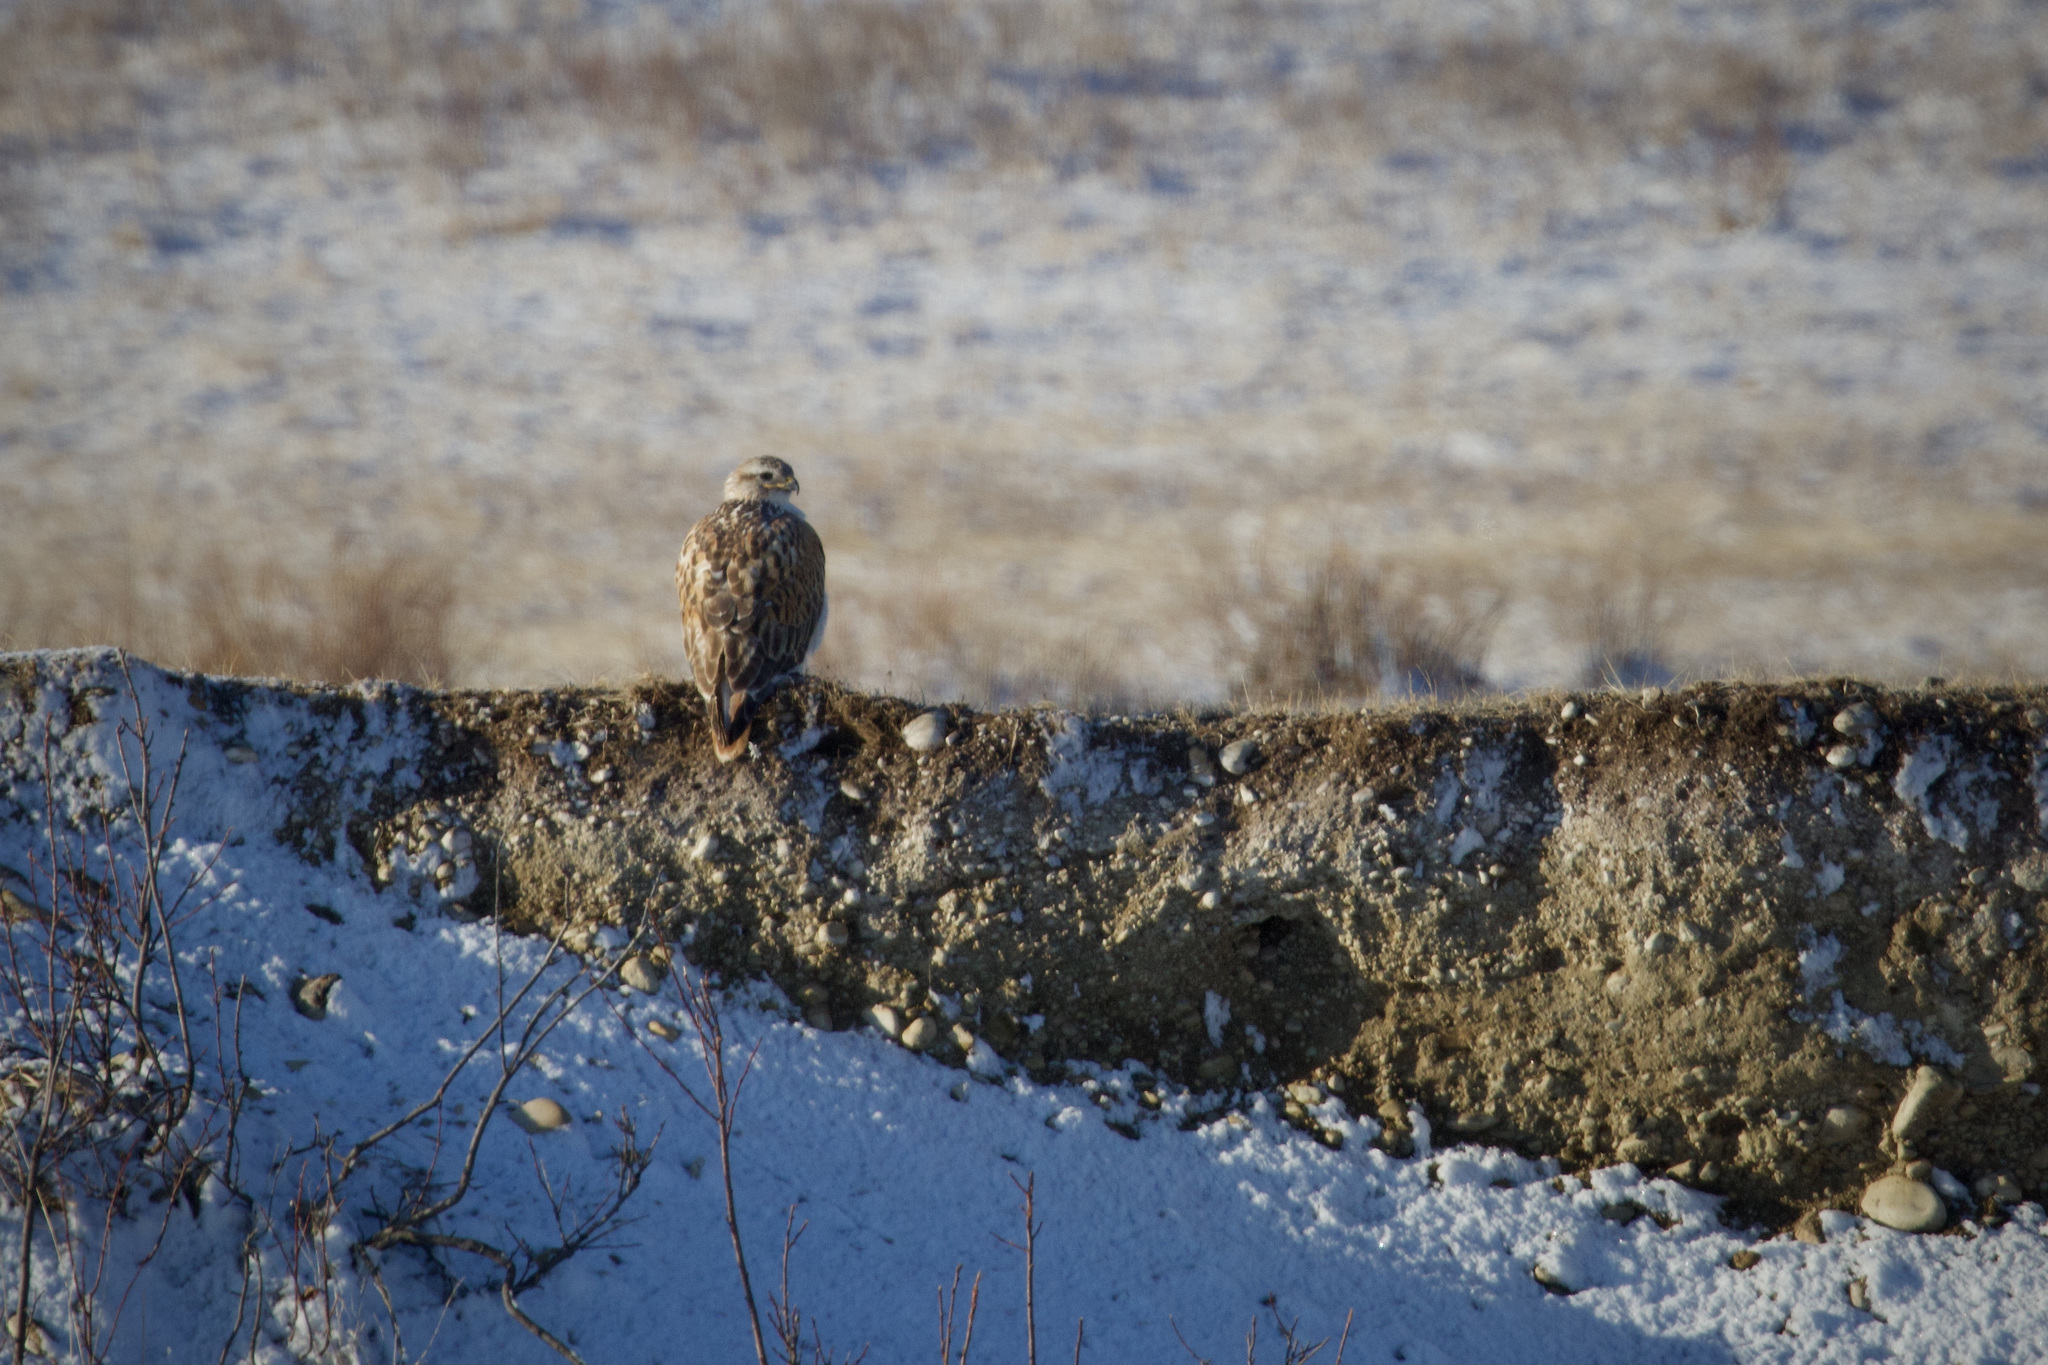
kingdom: Animalia
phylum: Chordata
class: Aves
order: Accipitriformes
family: Accipitridae
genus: Buteo
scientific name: Buteo regalis
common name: Ferruginous hawk
